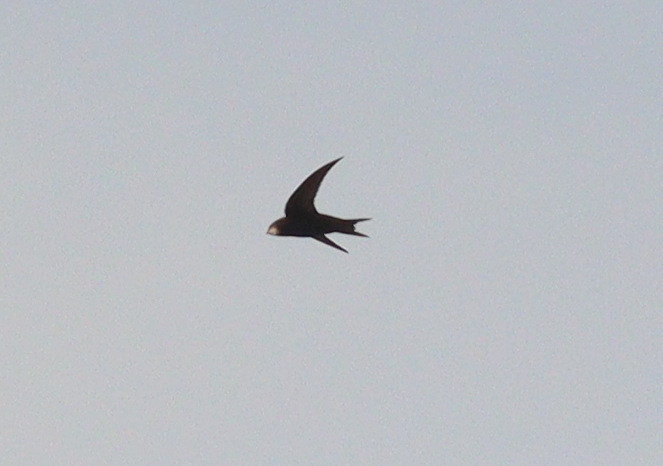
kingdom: Animalia
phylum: Chordata
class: Aves
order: Apodiformes
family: Apodidae
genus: Apus
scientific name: Apus apus
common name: Common swift
